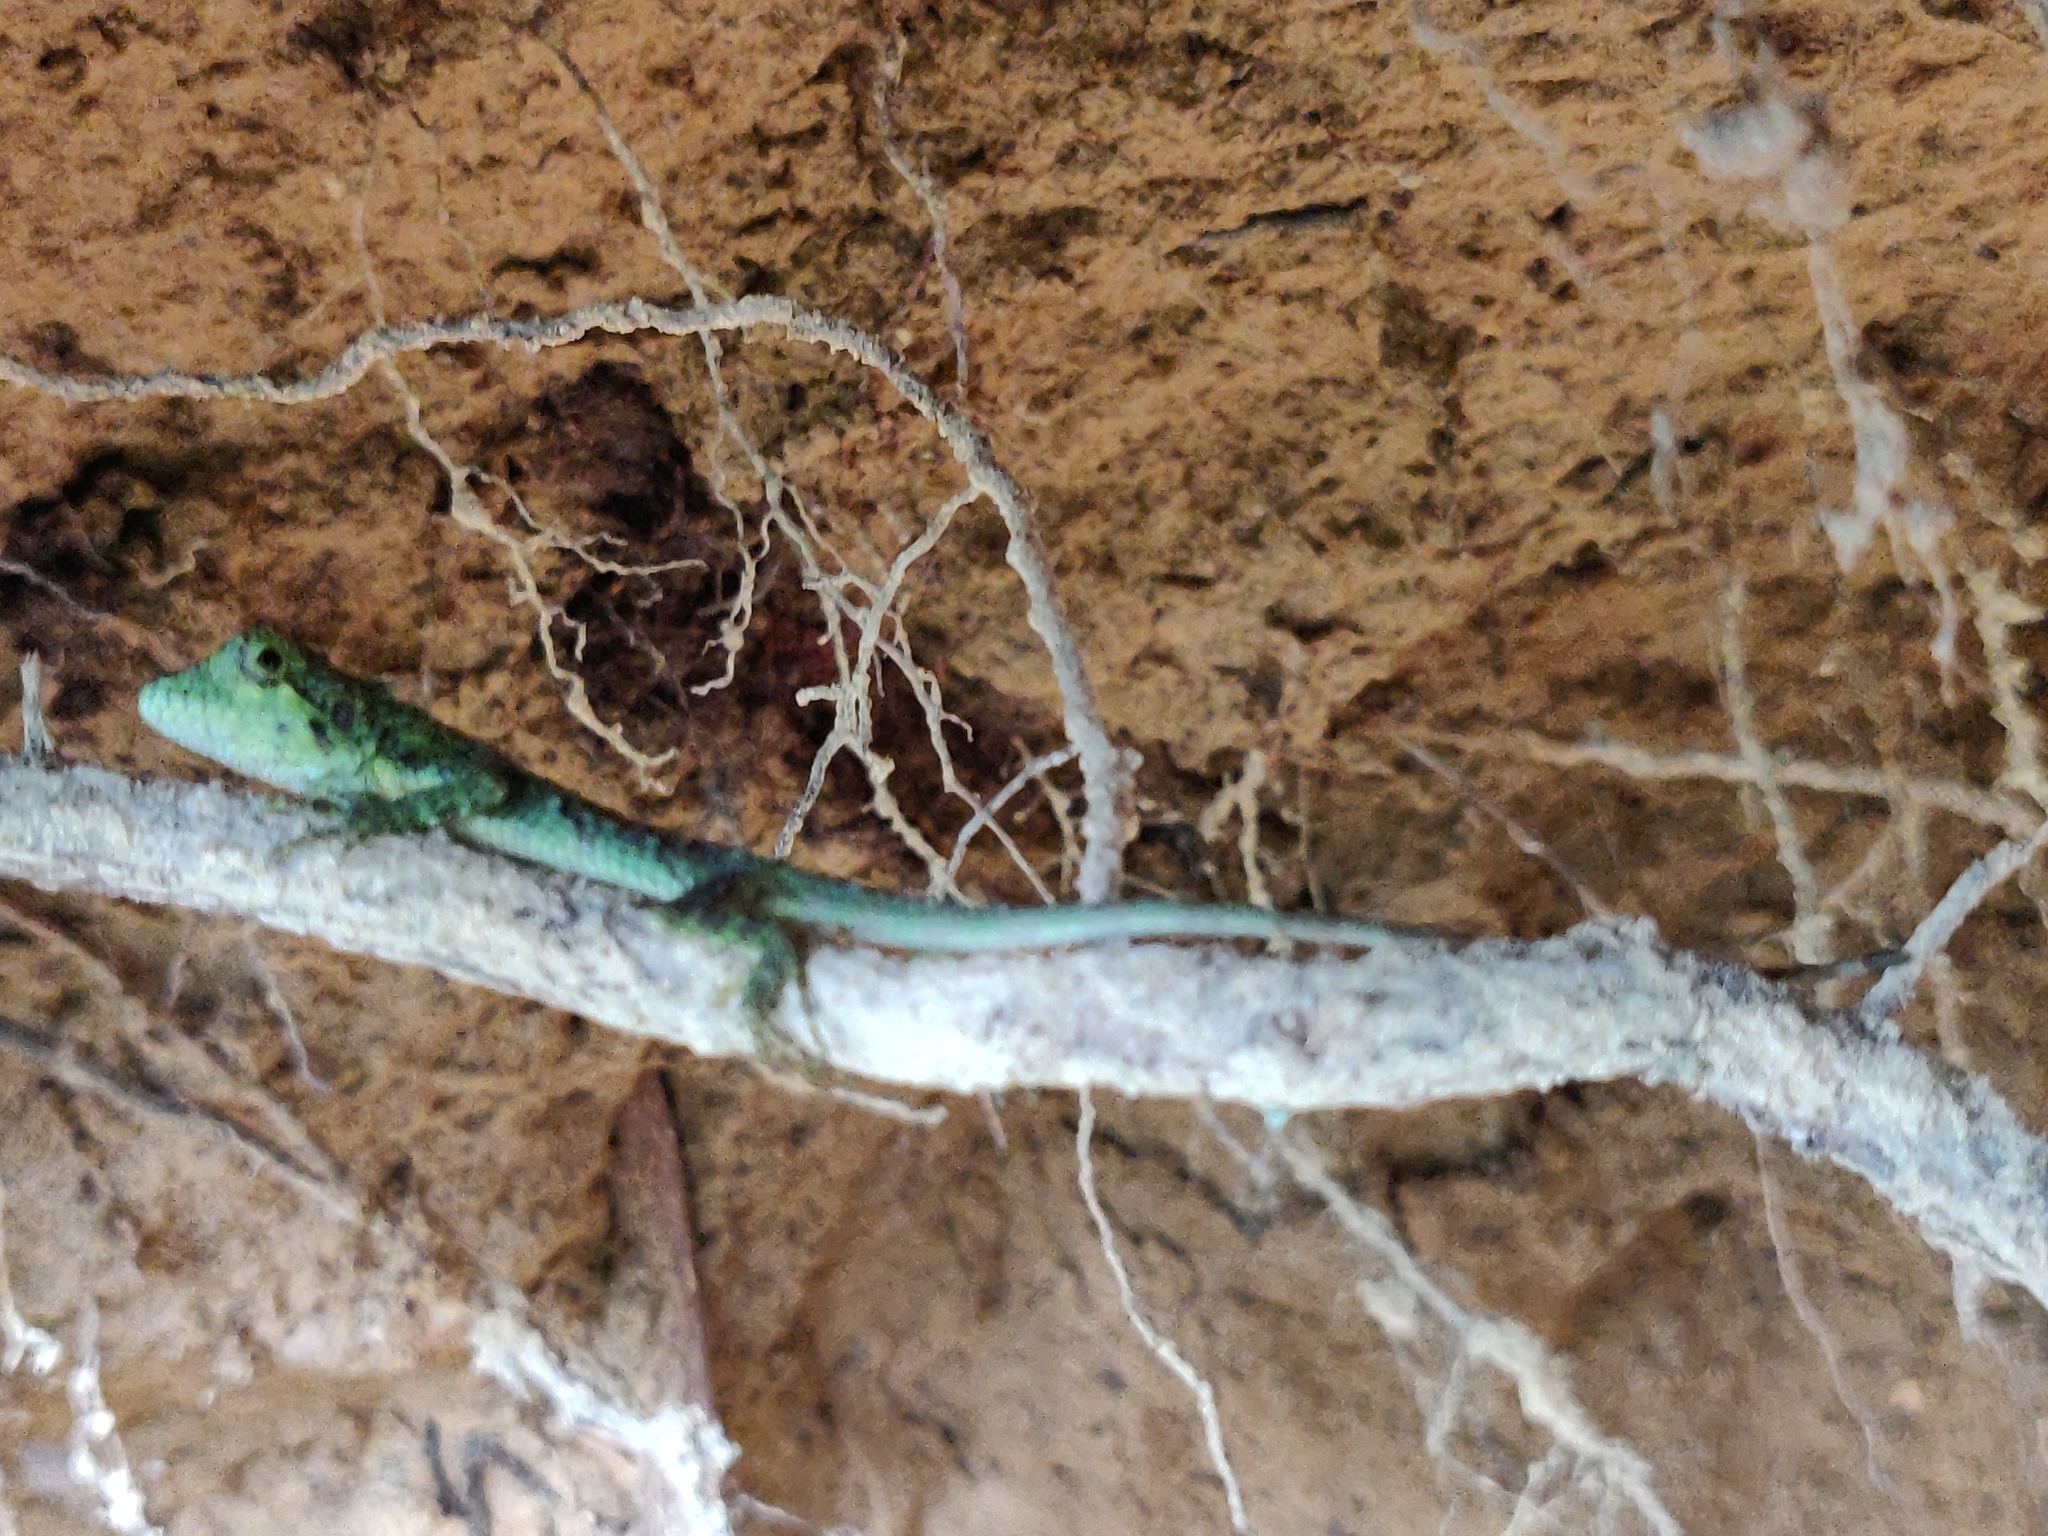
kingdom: Animalia
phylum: Chordata
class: Squamata
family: Agamidae
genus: Salea
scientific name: Salea anamallayana
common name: Anaimalai spiny lizard
